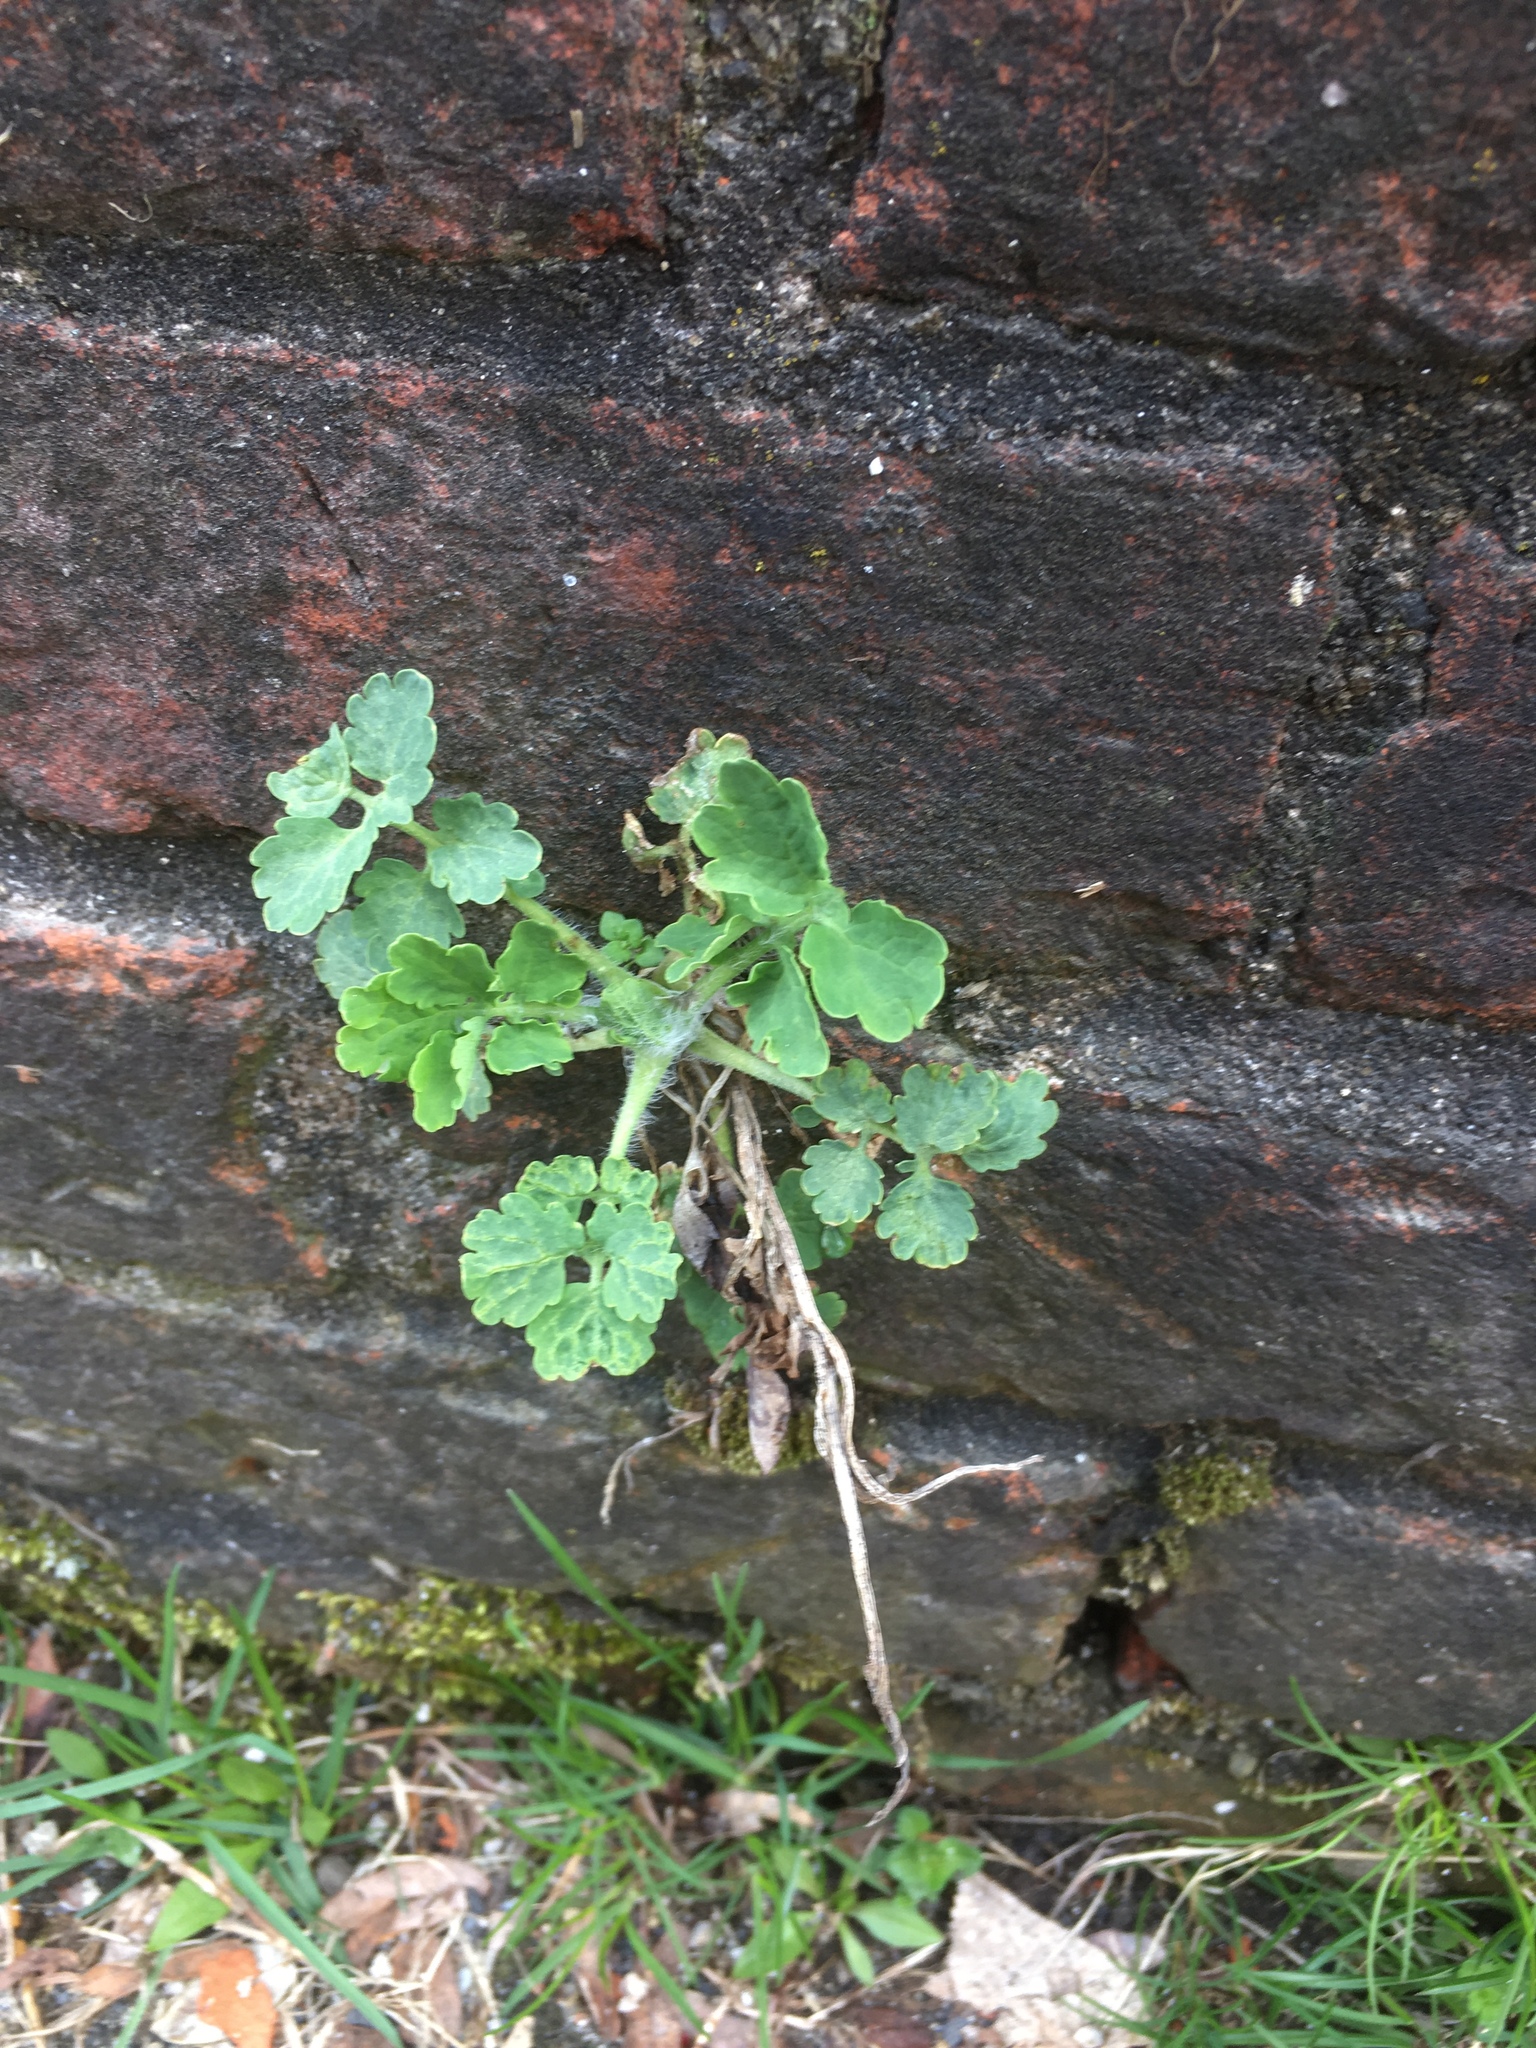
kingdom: Plantae
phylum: Tracheophyta
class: Magnoliopsida
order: Ranunculales
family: Papaveraceae
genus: Chelidonium
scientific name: Chelidonium majus
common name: Greater celandine
